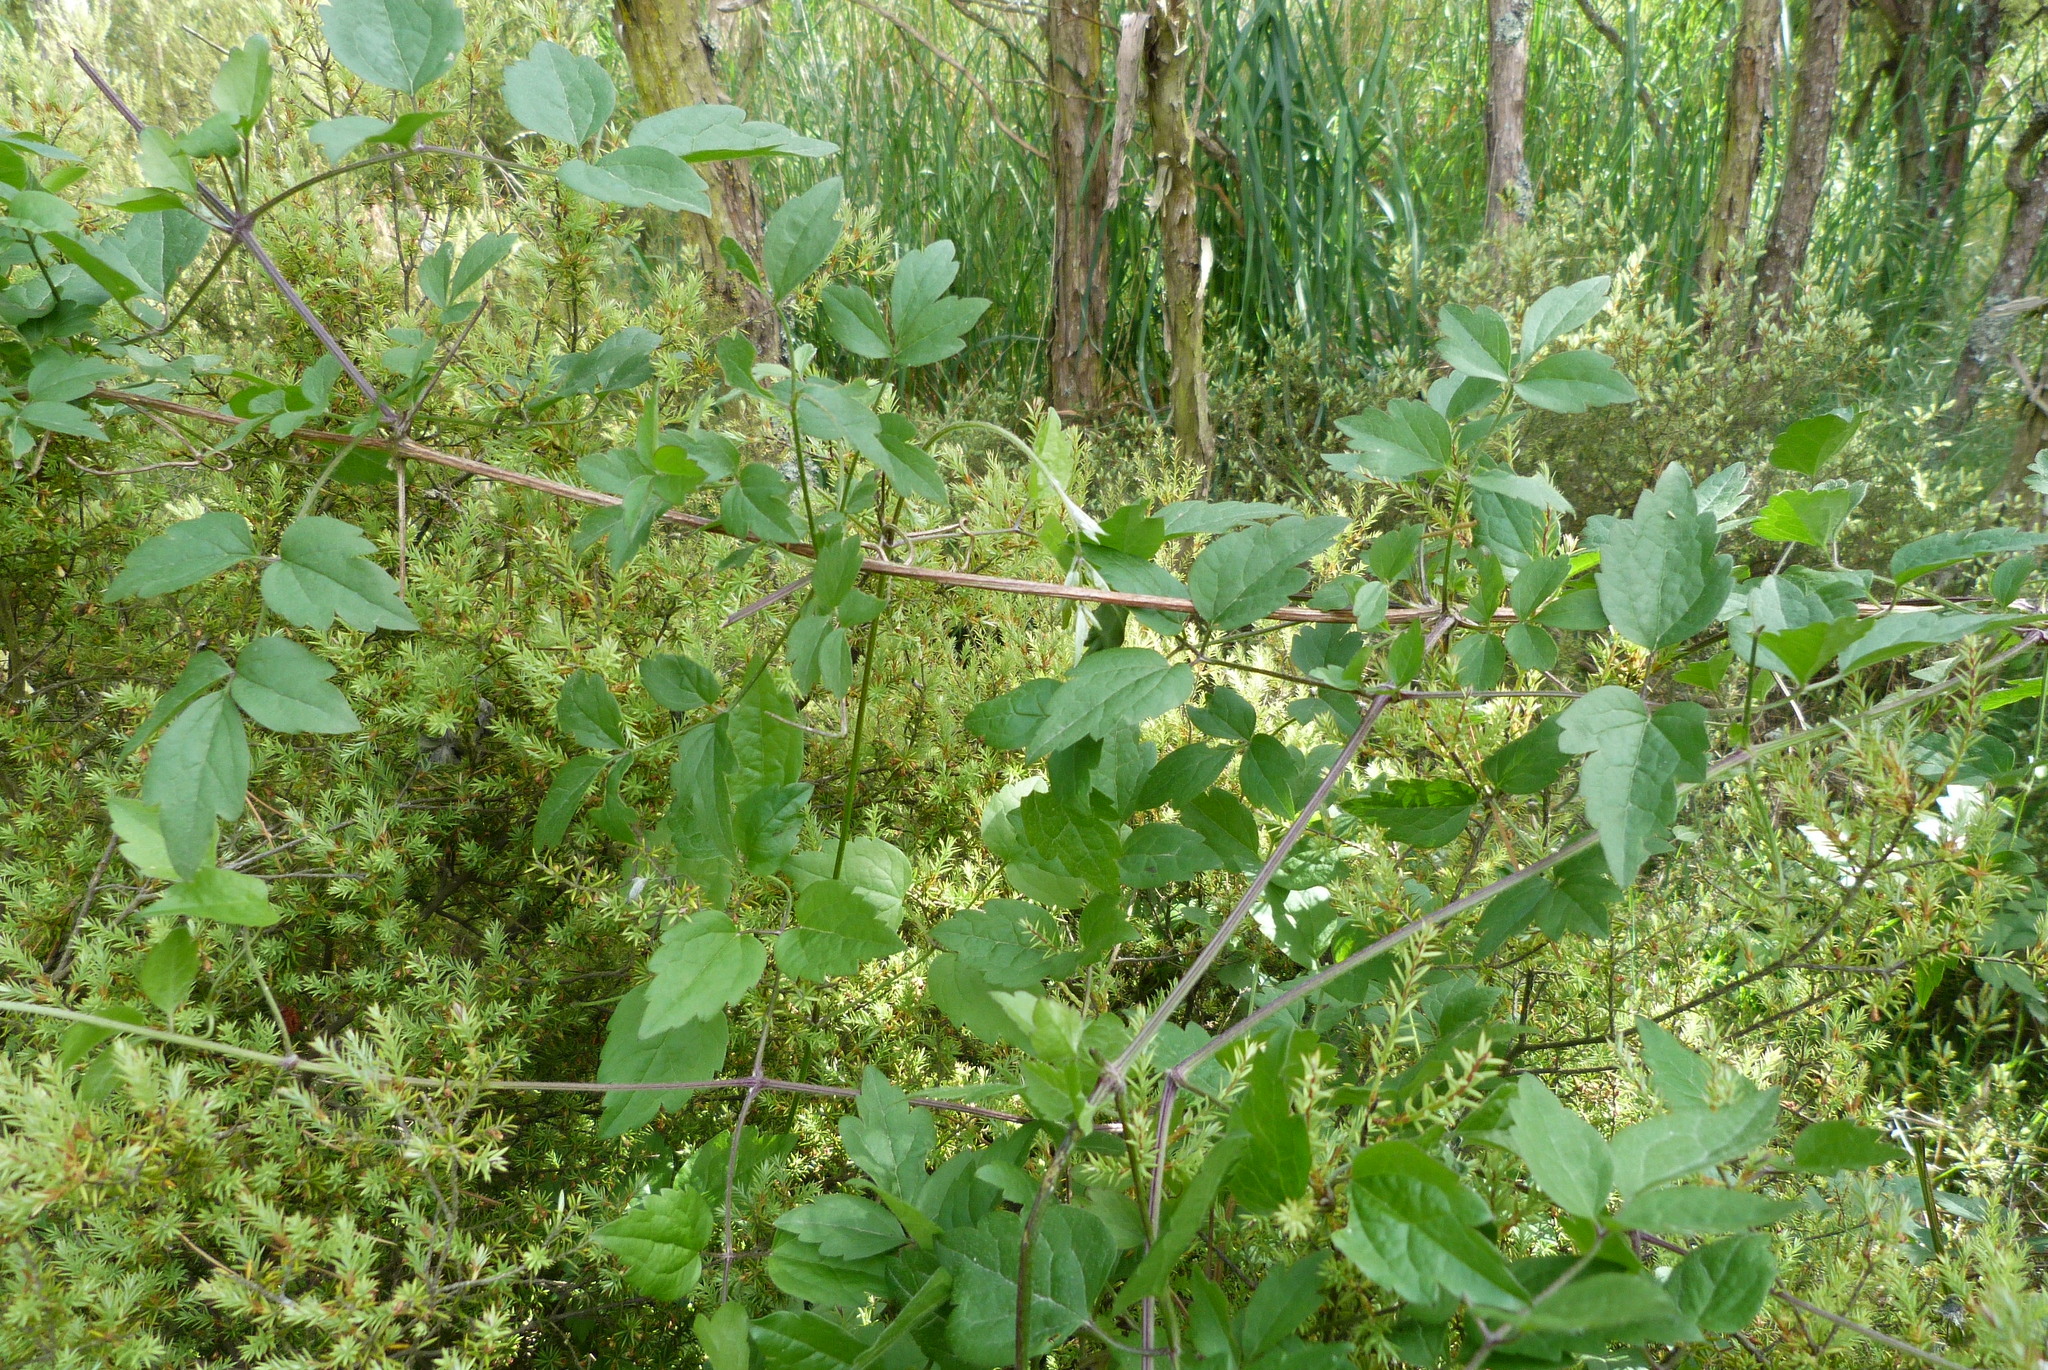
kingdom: Plantae
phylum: Tracheophyta
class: Magnoliopsida
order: Ranunculales
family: Ranunculaceae
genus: Clematis
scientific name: Clematis vitalba
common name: Evergreen clematis
